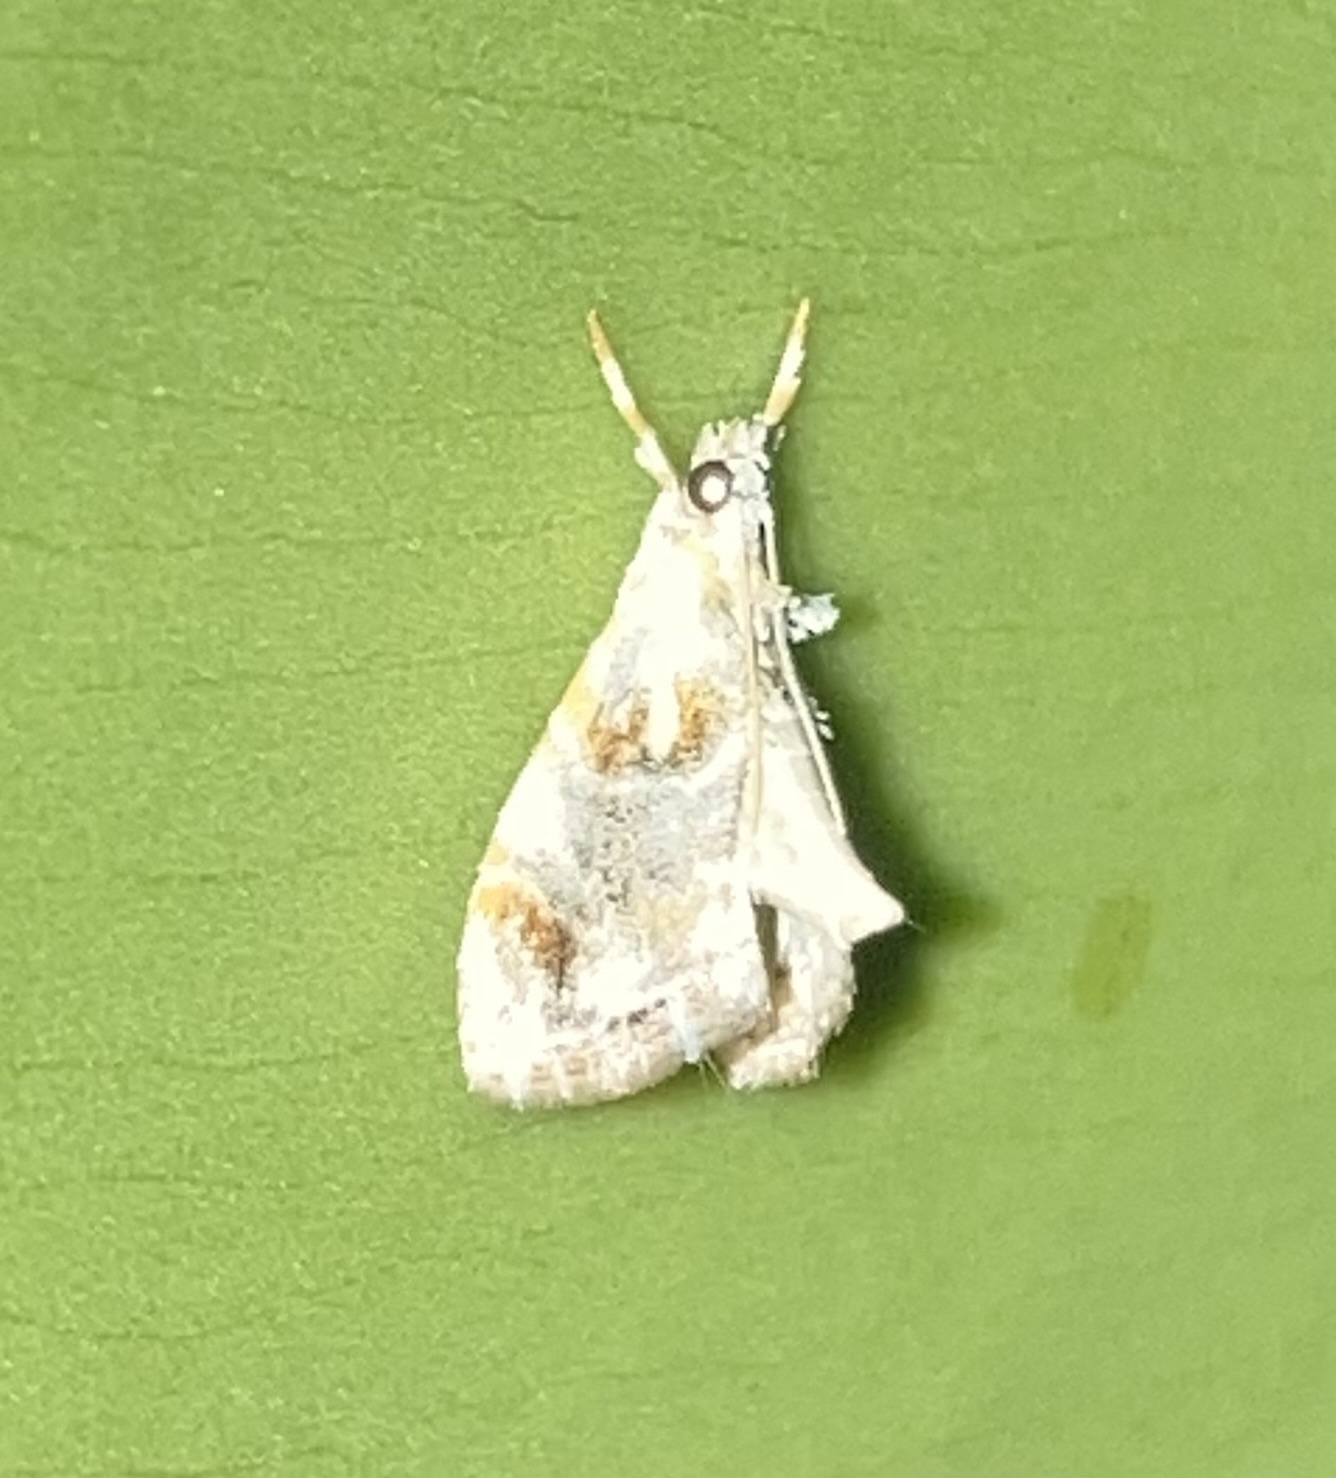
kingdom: Animalia
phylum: Arthropoda
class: Insecta
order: Lepidoptera
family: Crambidae
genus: Dicymolomia
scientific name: Dicymolomia julianalis
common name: Julia's dicymolomia moth
